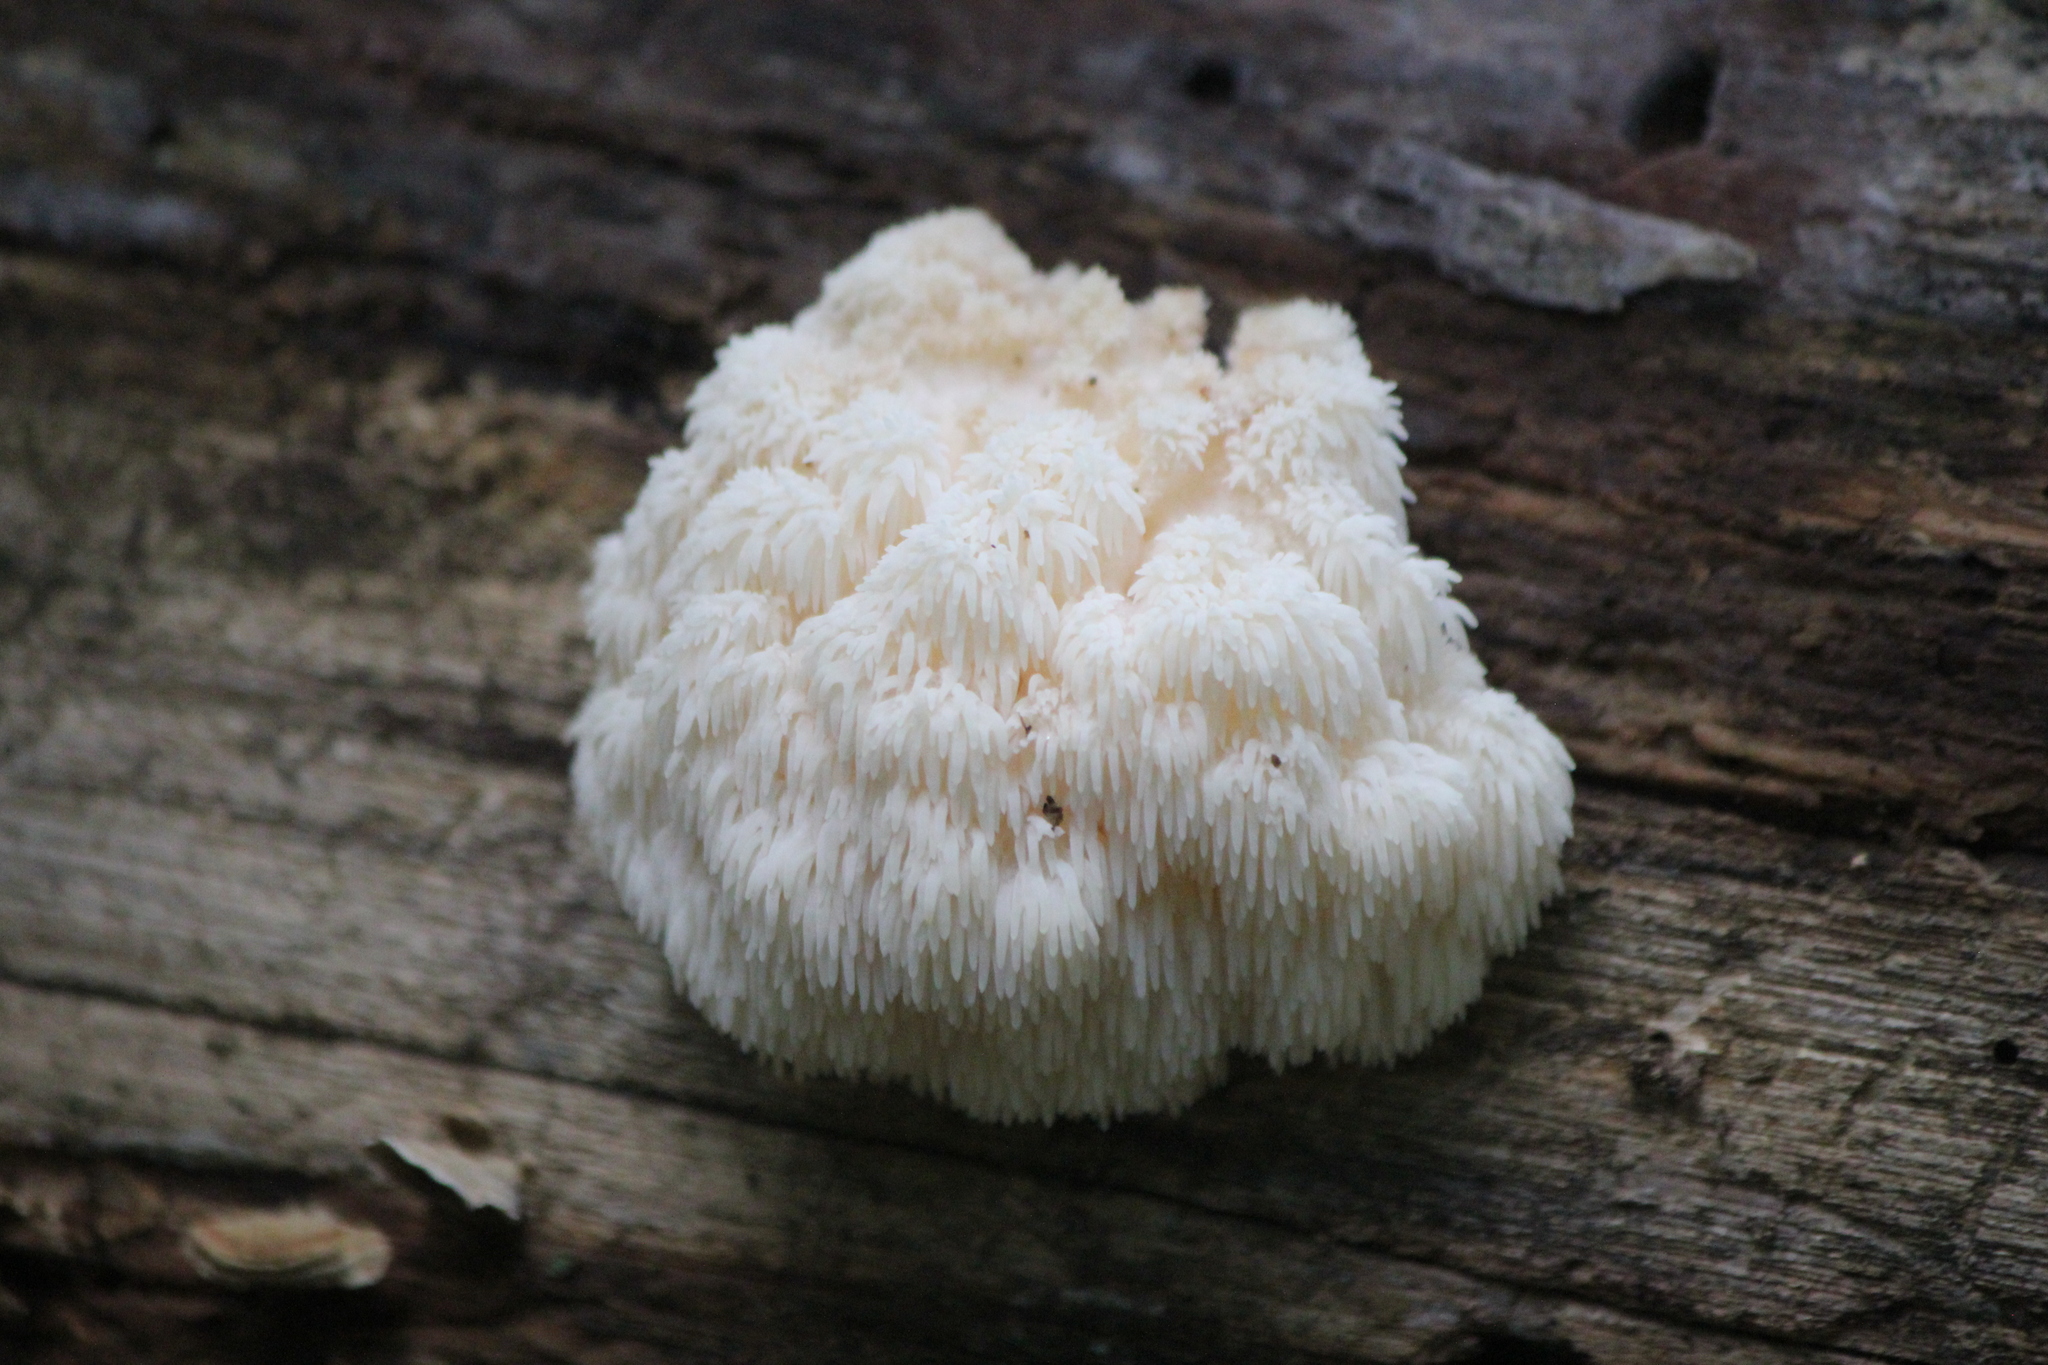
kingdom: Fungi
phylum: Basidiomycota
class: Agaricomycetes
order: Russulales
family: Hericiaceae
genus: Hericium
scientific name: Hericium americanum
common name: Bear's head tooth
